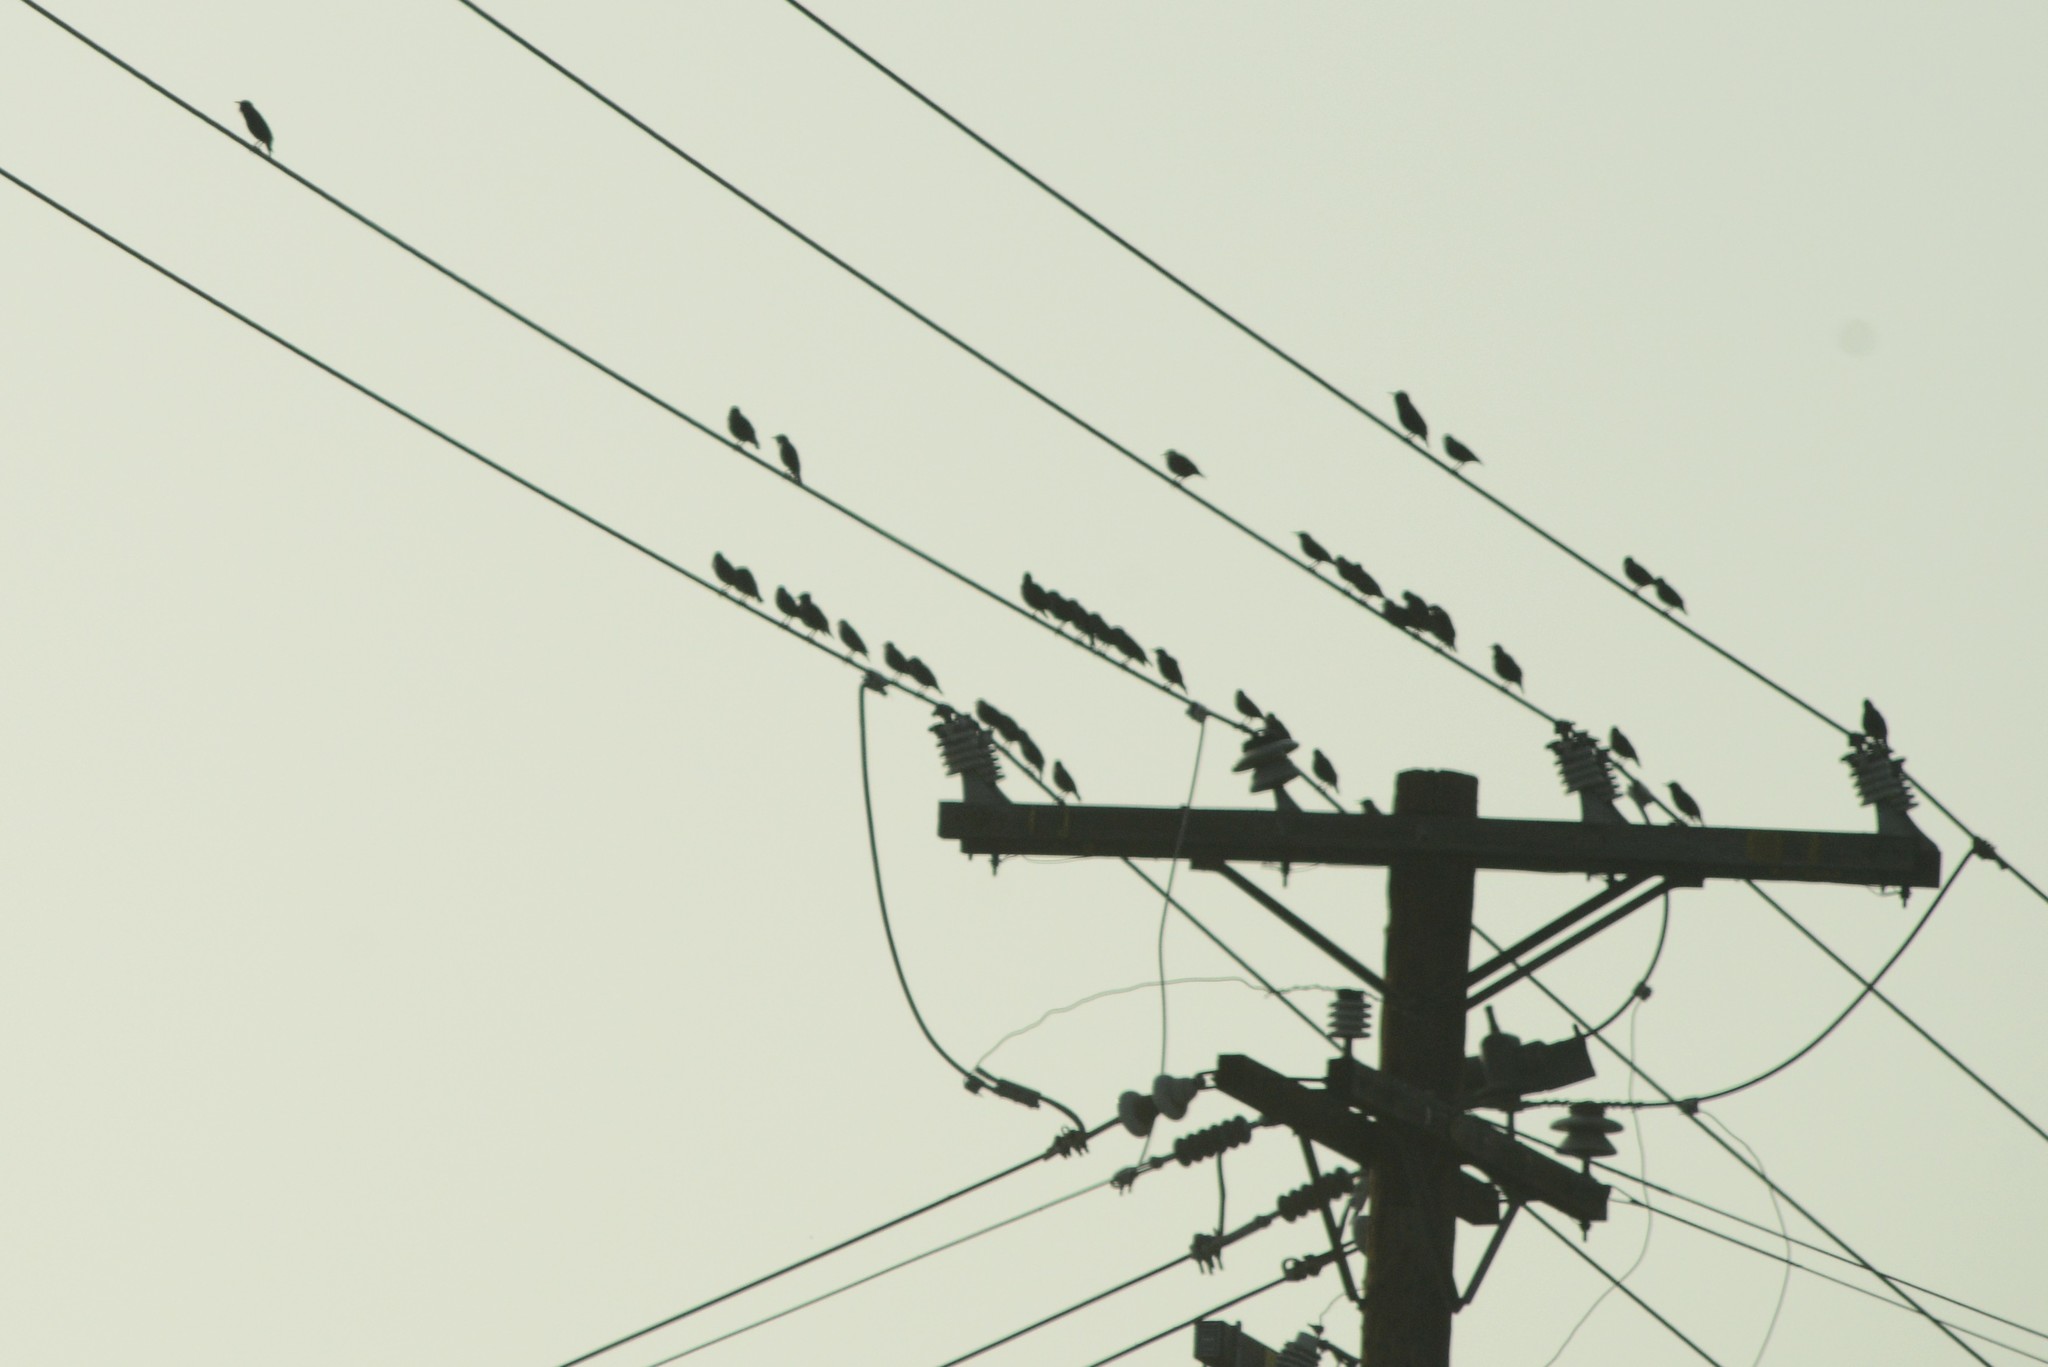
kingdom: Animalia
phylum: Chordata
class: Aves
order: Passeriformes
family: Sturnidae
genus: Sturnus
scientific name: Sturnus vulgaris
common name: Common starling
